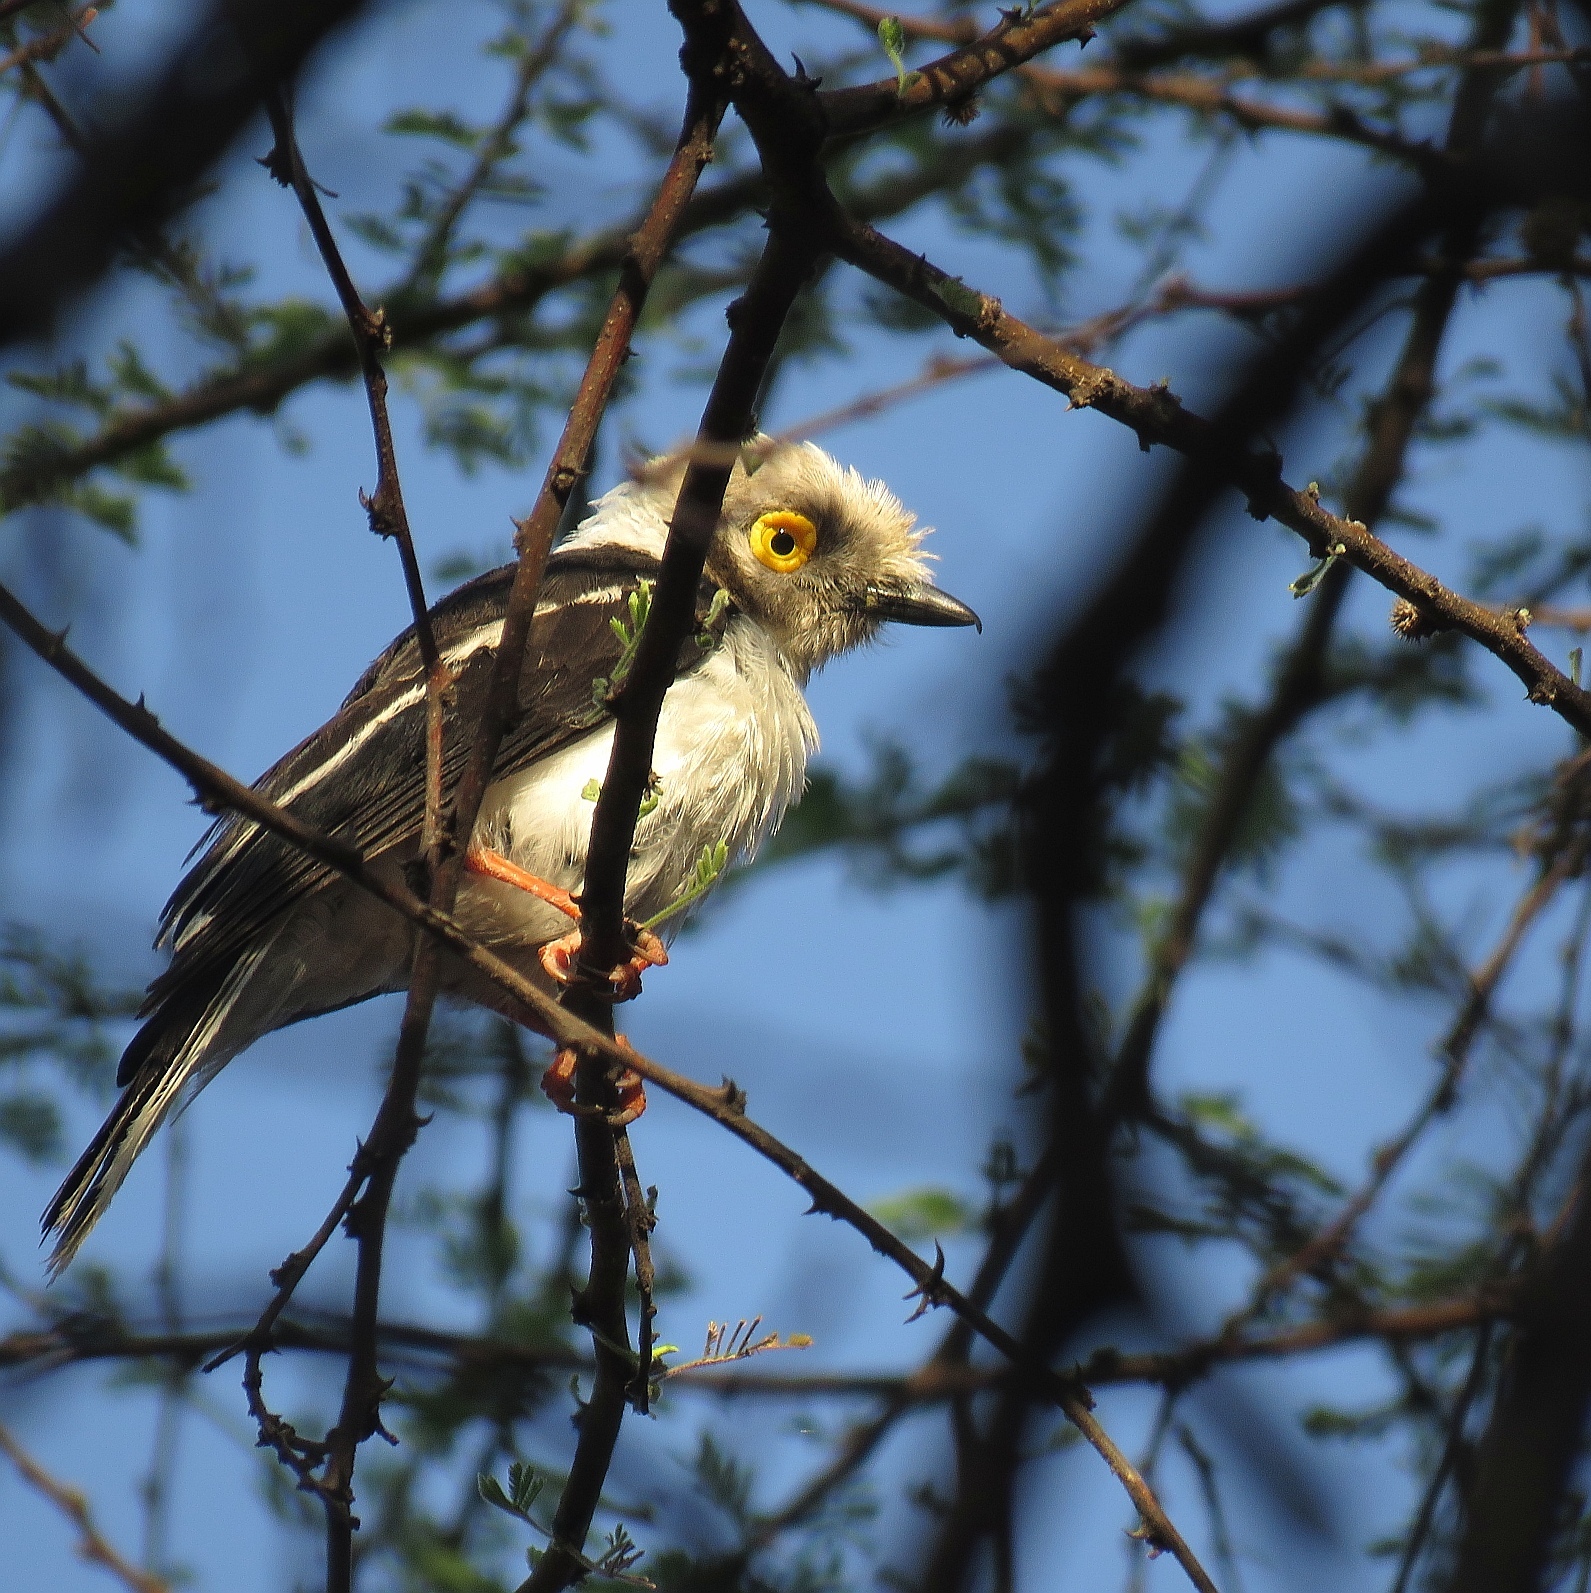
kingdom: Animalia
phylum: Chordata
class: Aves
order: Passeriformes
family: Prionopidae
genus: Prionops
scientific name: Prionops plumatus
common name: White-crested helmetshrike
